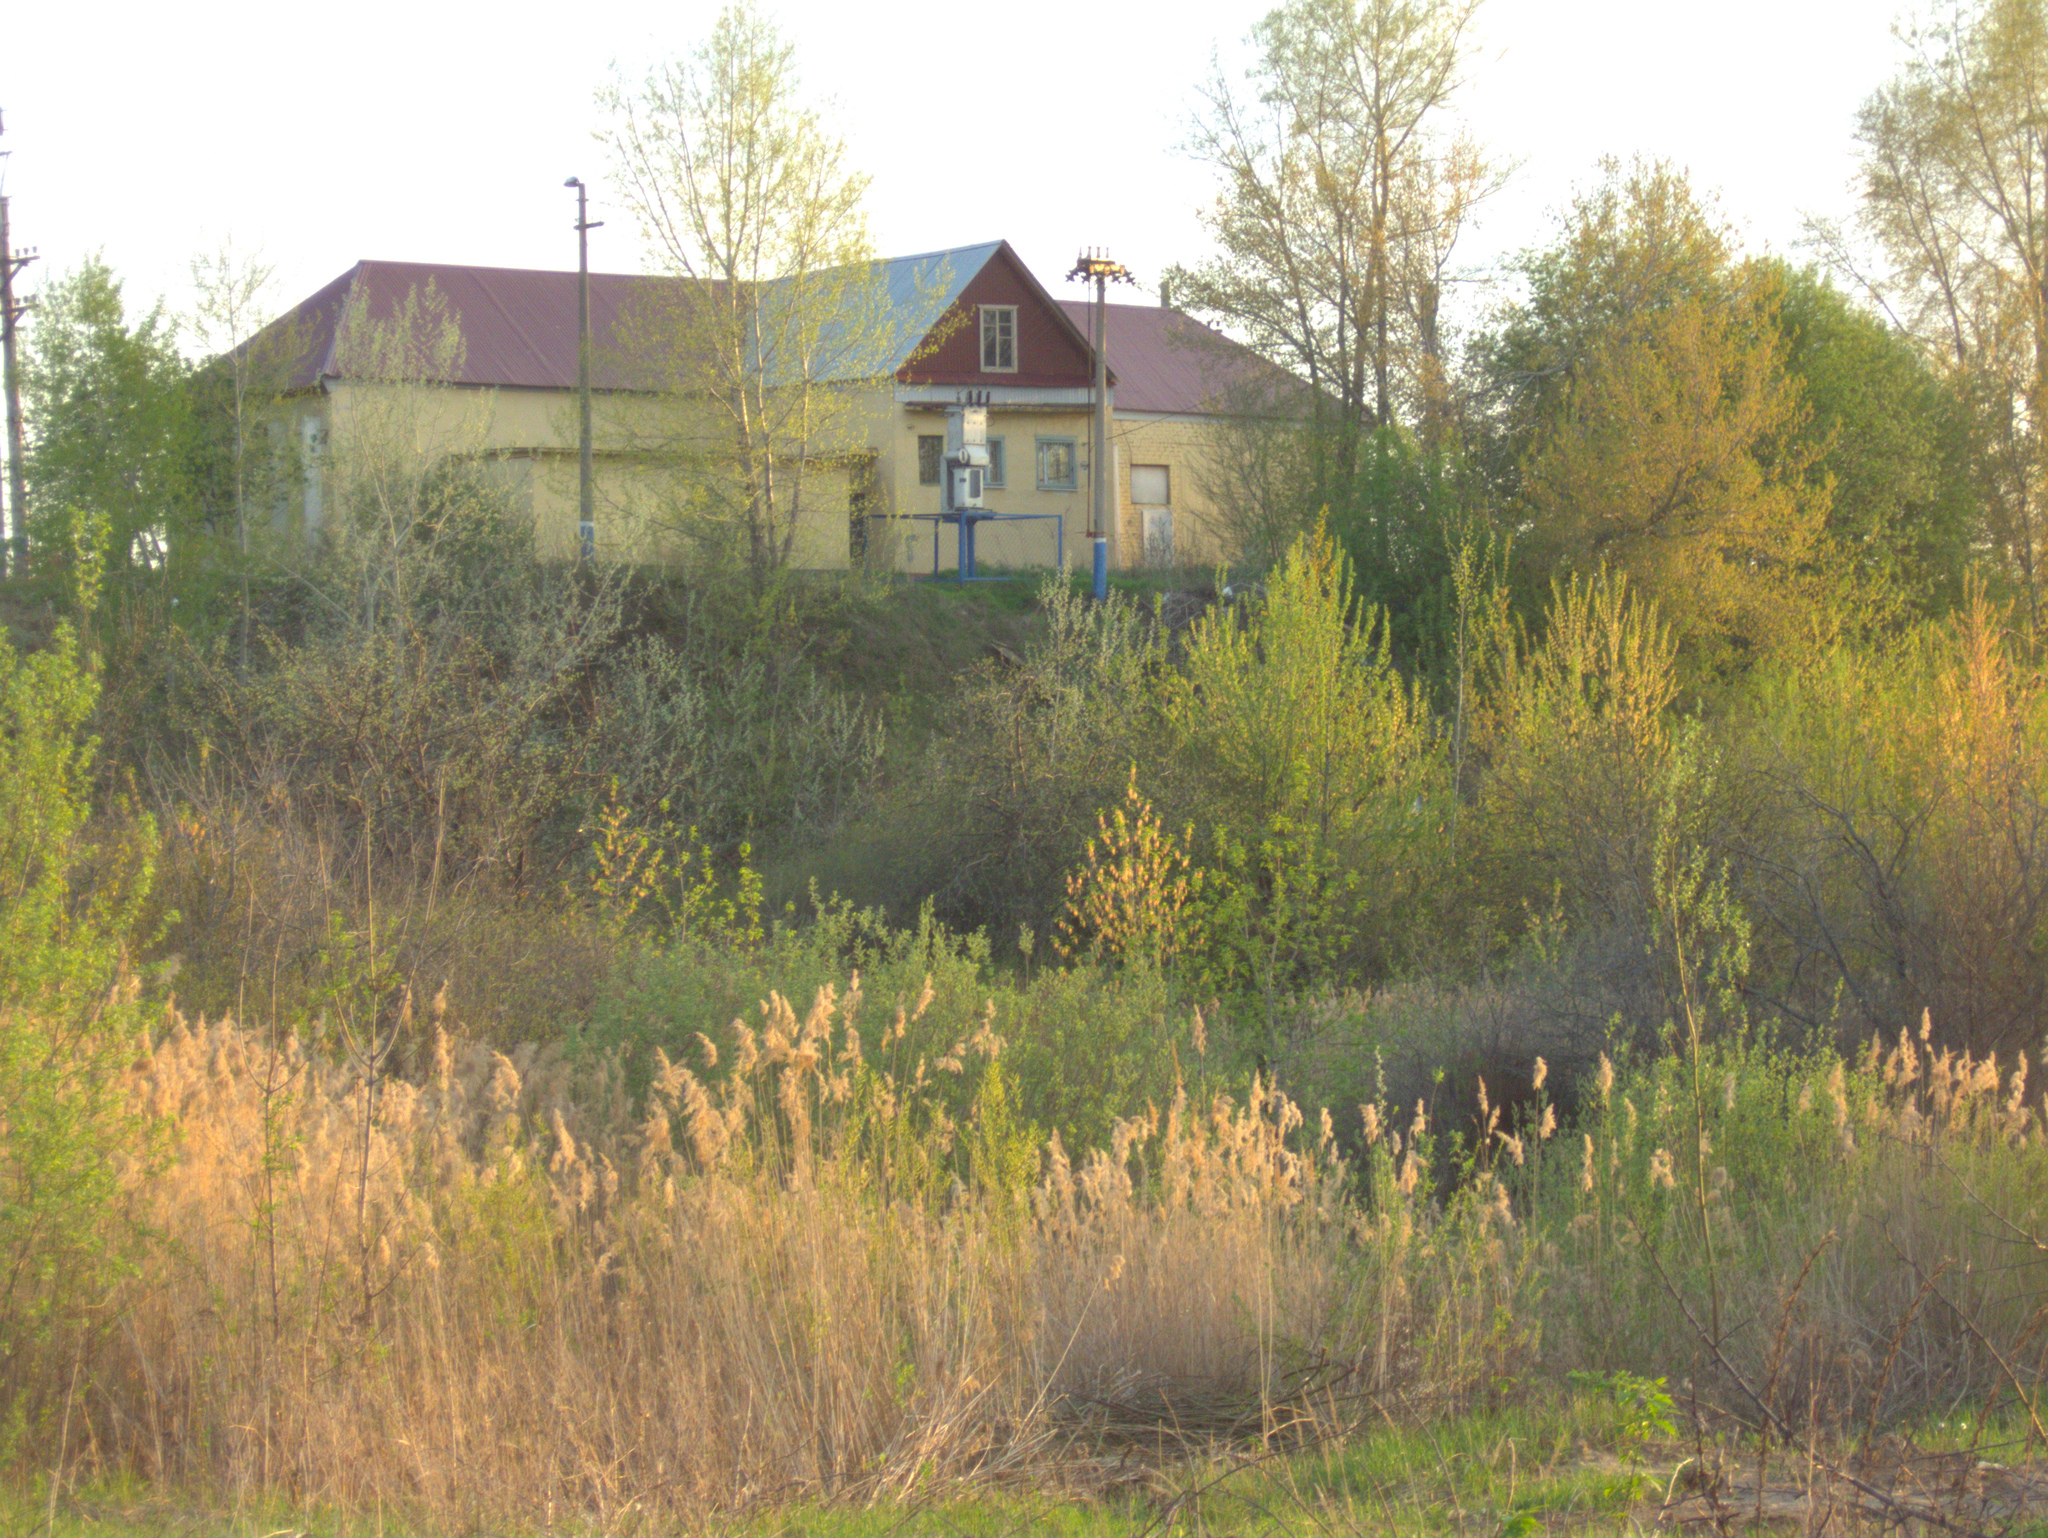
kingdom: Plantae
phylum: Tracheophyta
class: Liliopsida
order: Poales
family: Poaceae
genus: Phragmites
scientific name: Phragmites australis
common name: Common reed
